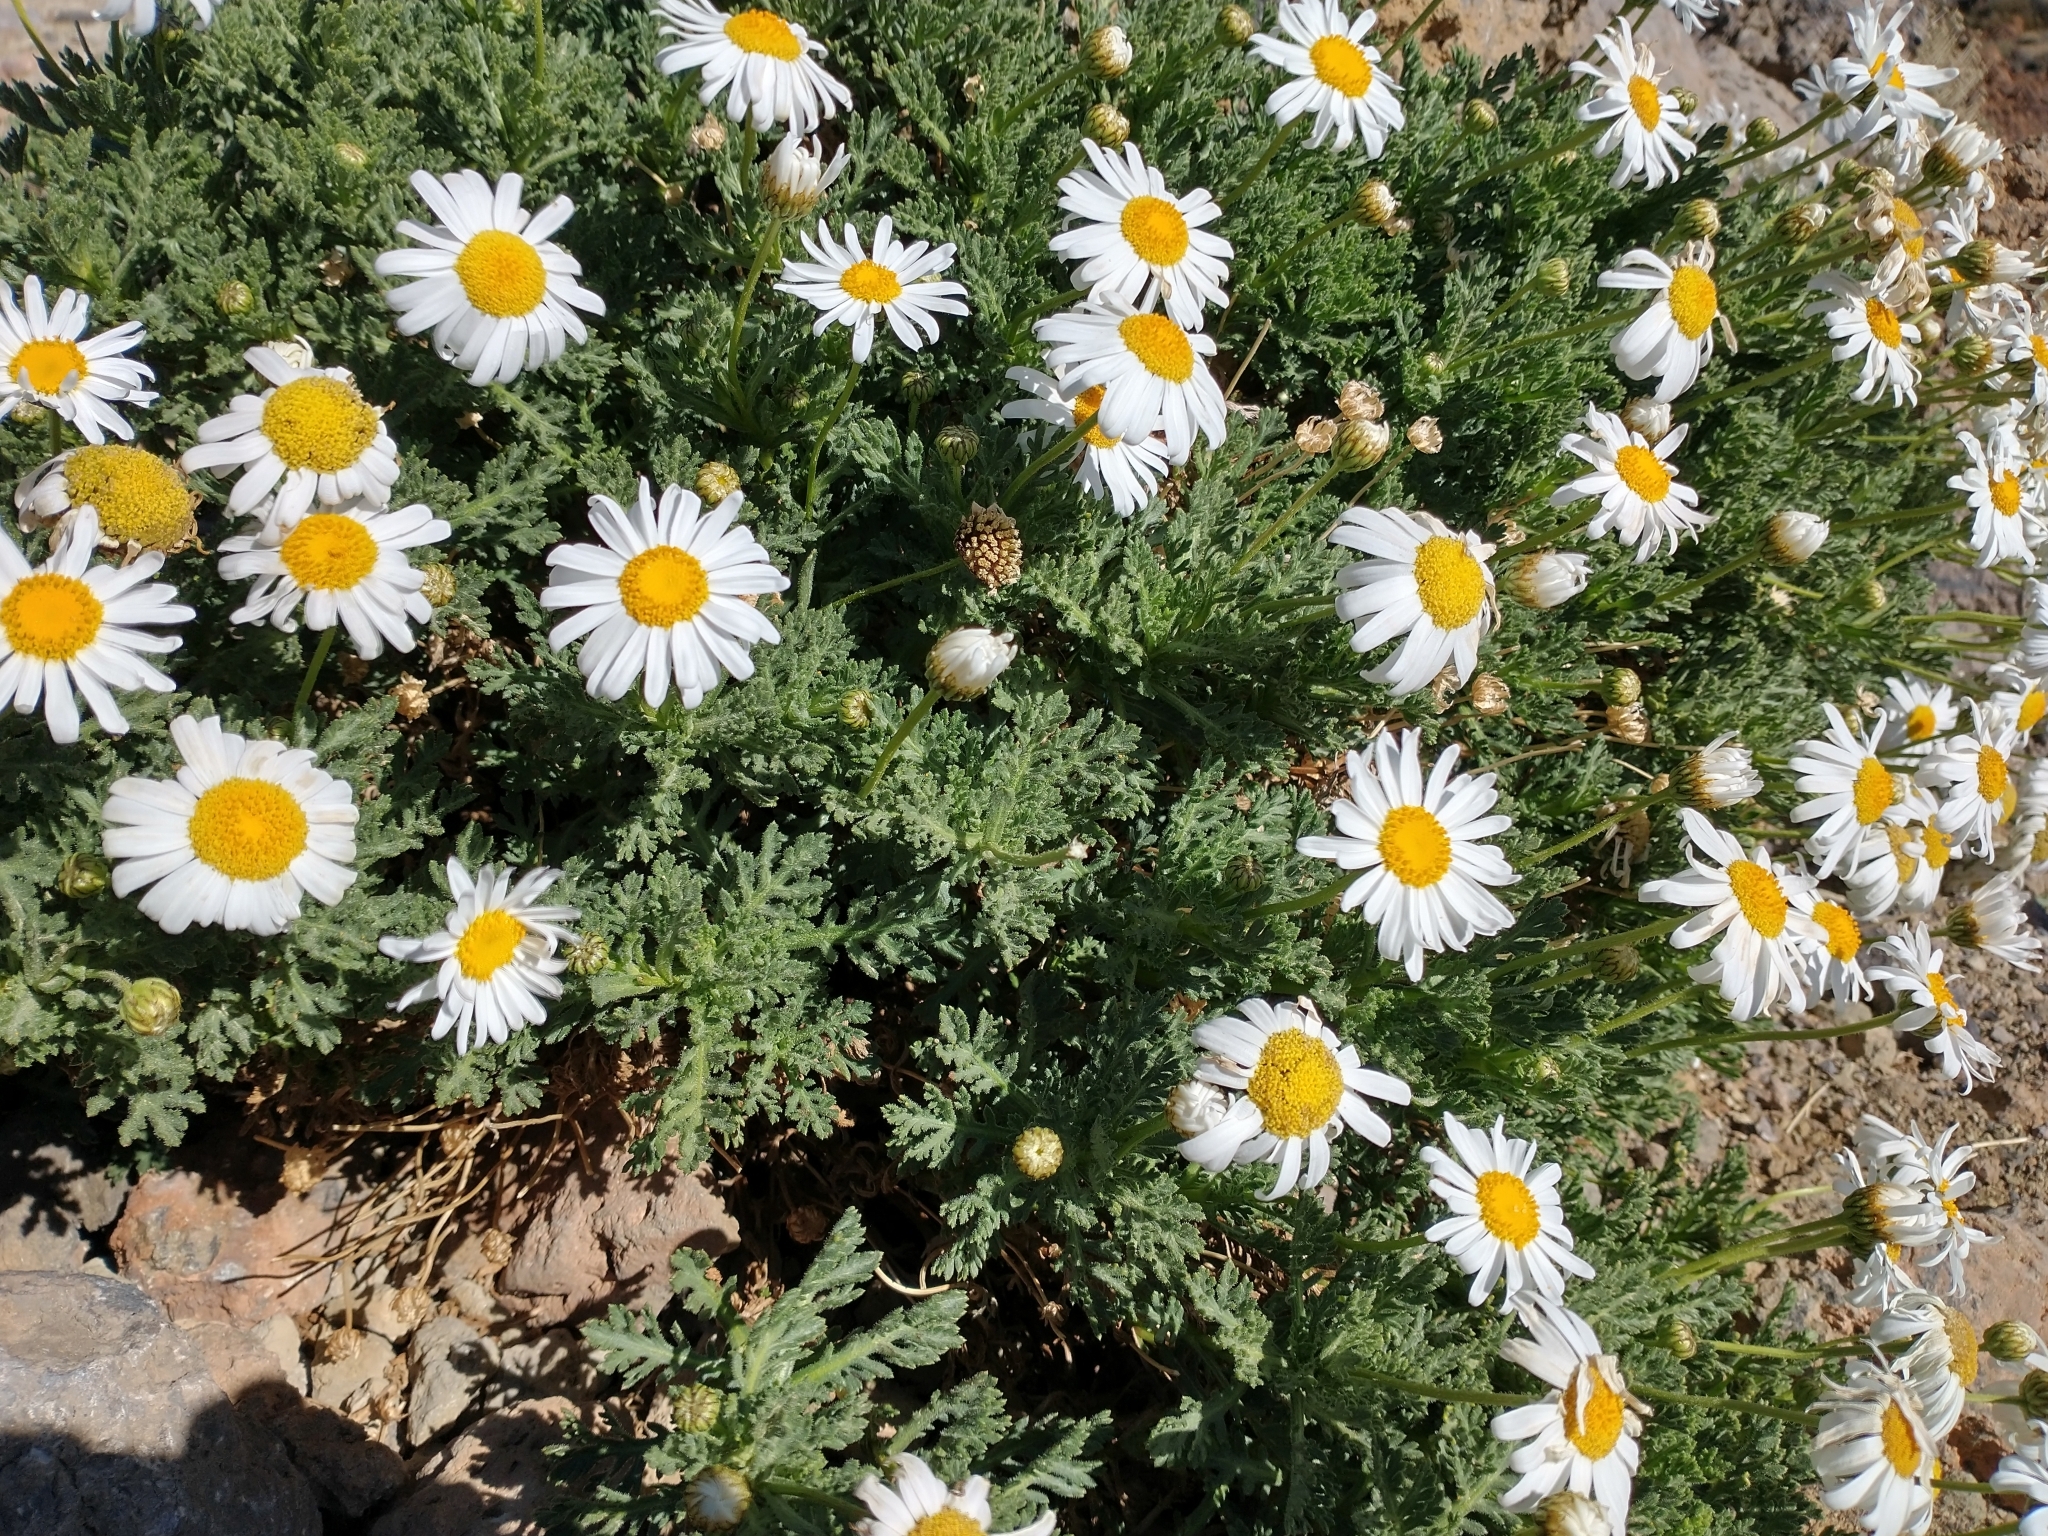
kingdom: Plantae
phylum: Tracheophyta
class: Magnoliopsida
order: Asterales
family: Asteraceae
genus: Argyranthemum
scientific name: Argyranthemum tenerifae
